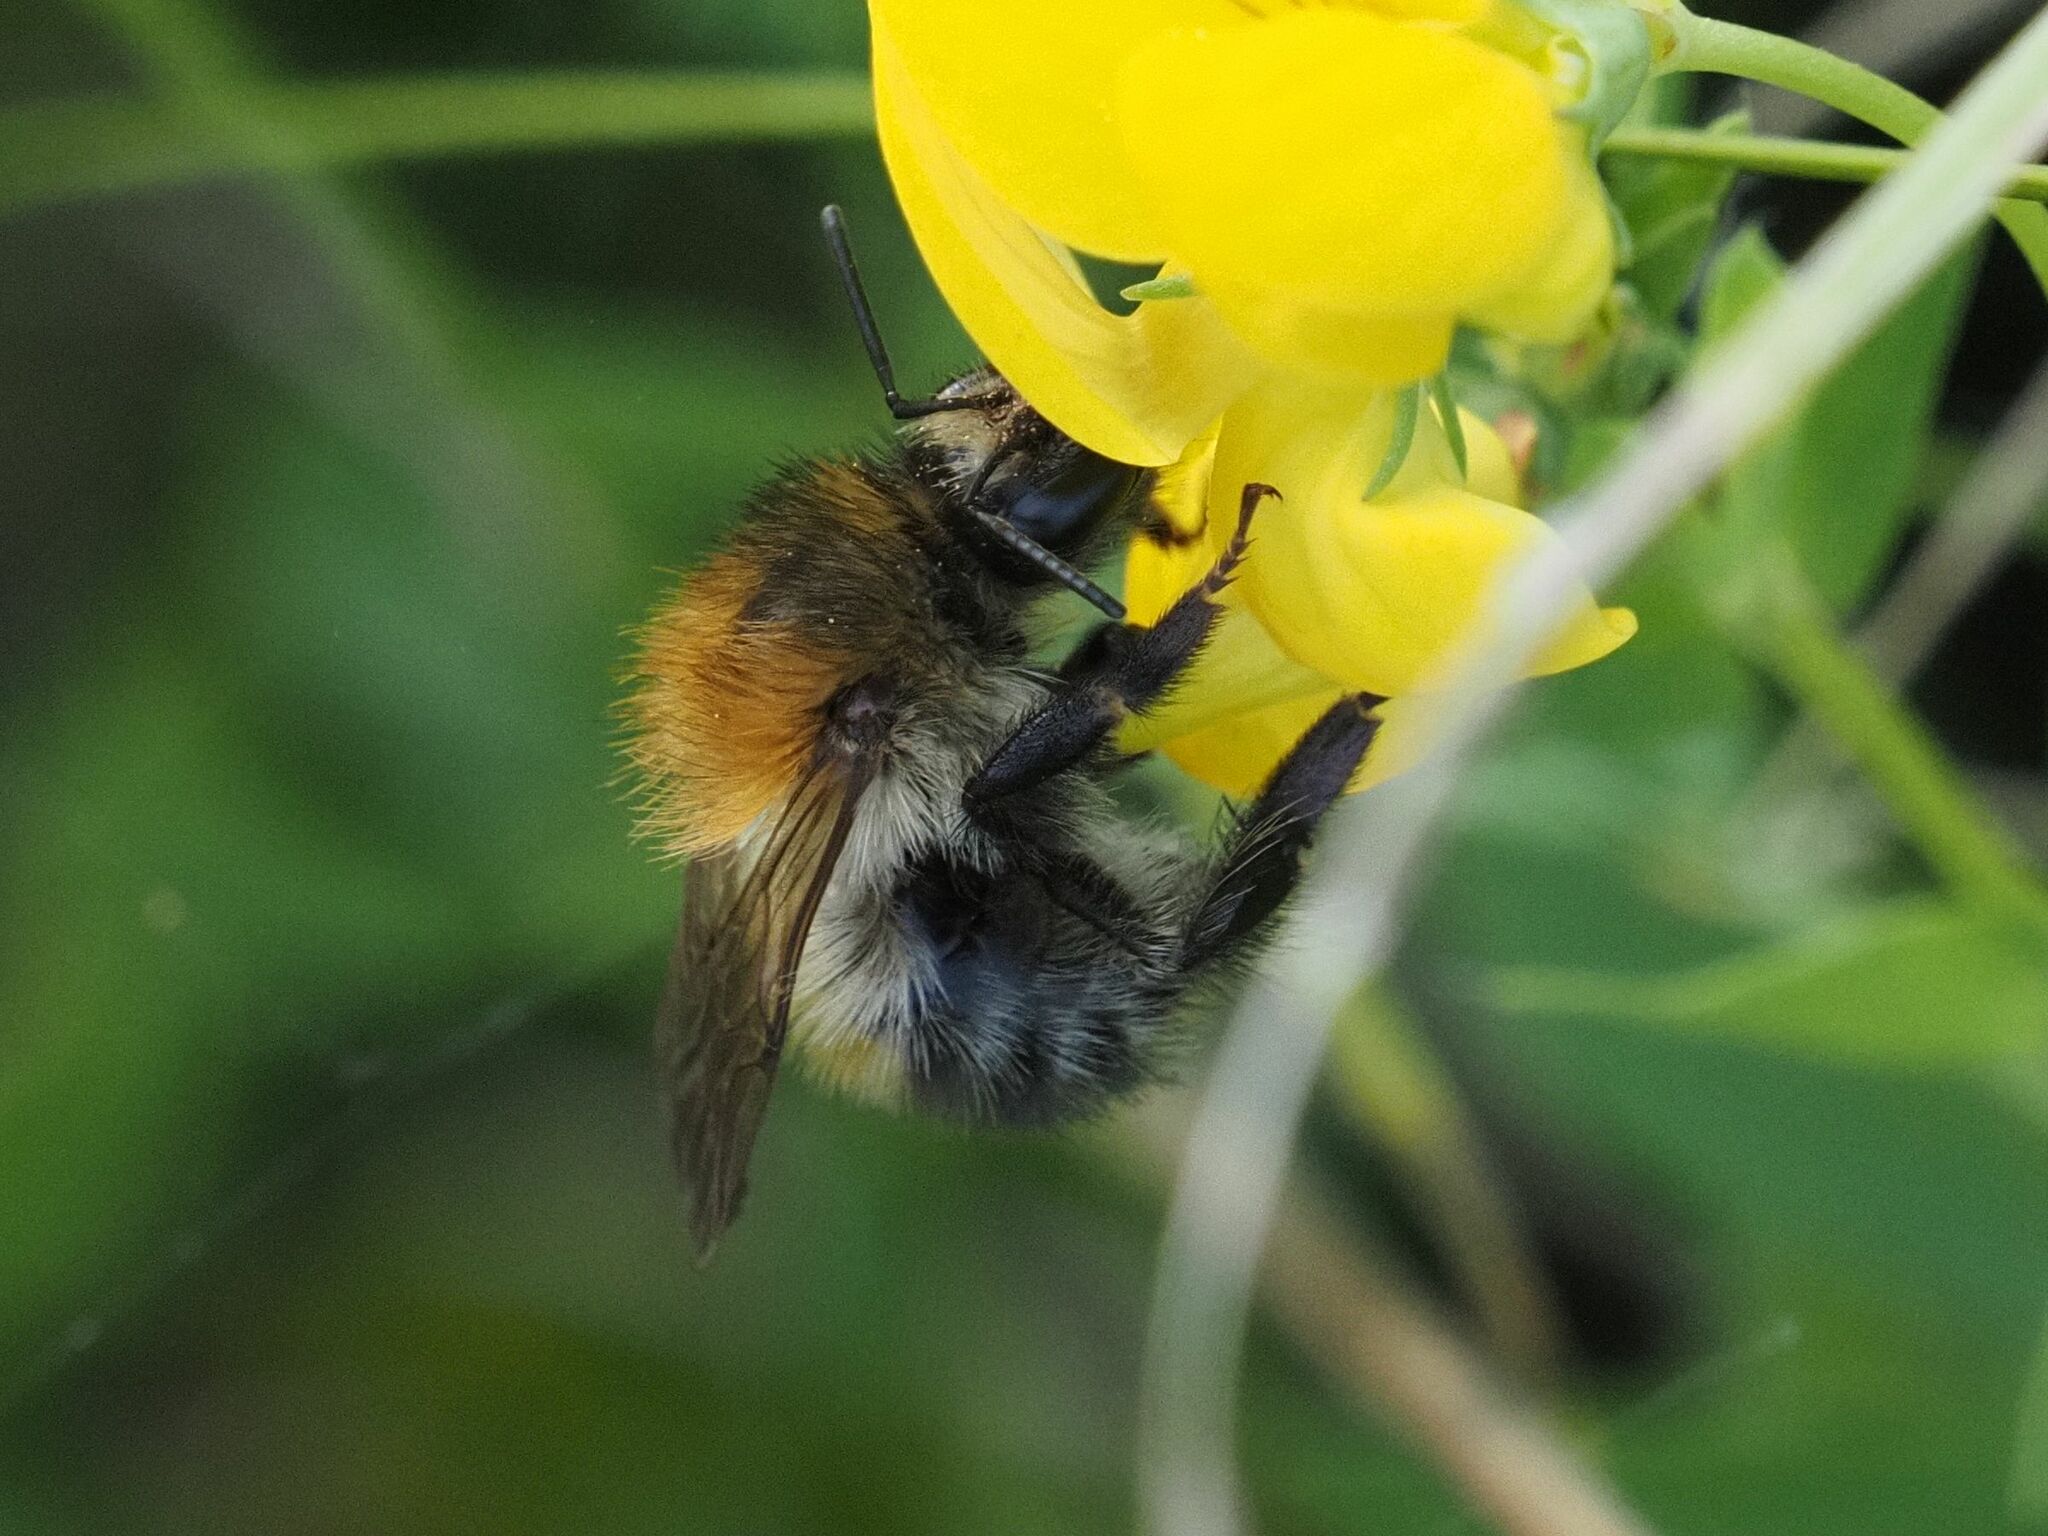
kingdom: Animalia
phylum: Arthropoda
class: Insecta
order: Hymenoptera
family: Apidae
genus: Bombus
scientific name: Bombus pascuorum
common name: Common carder bee
